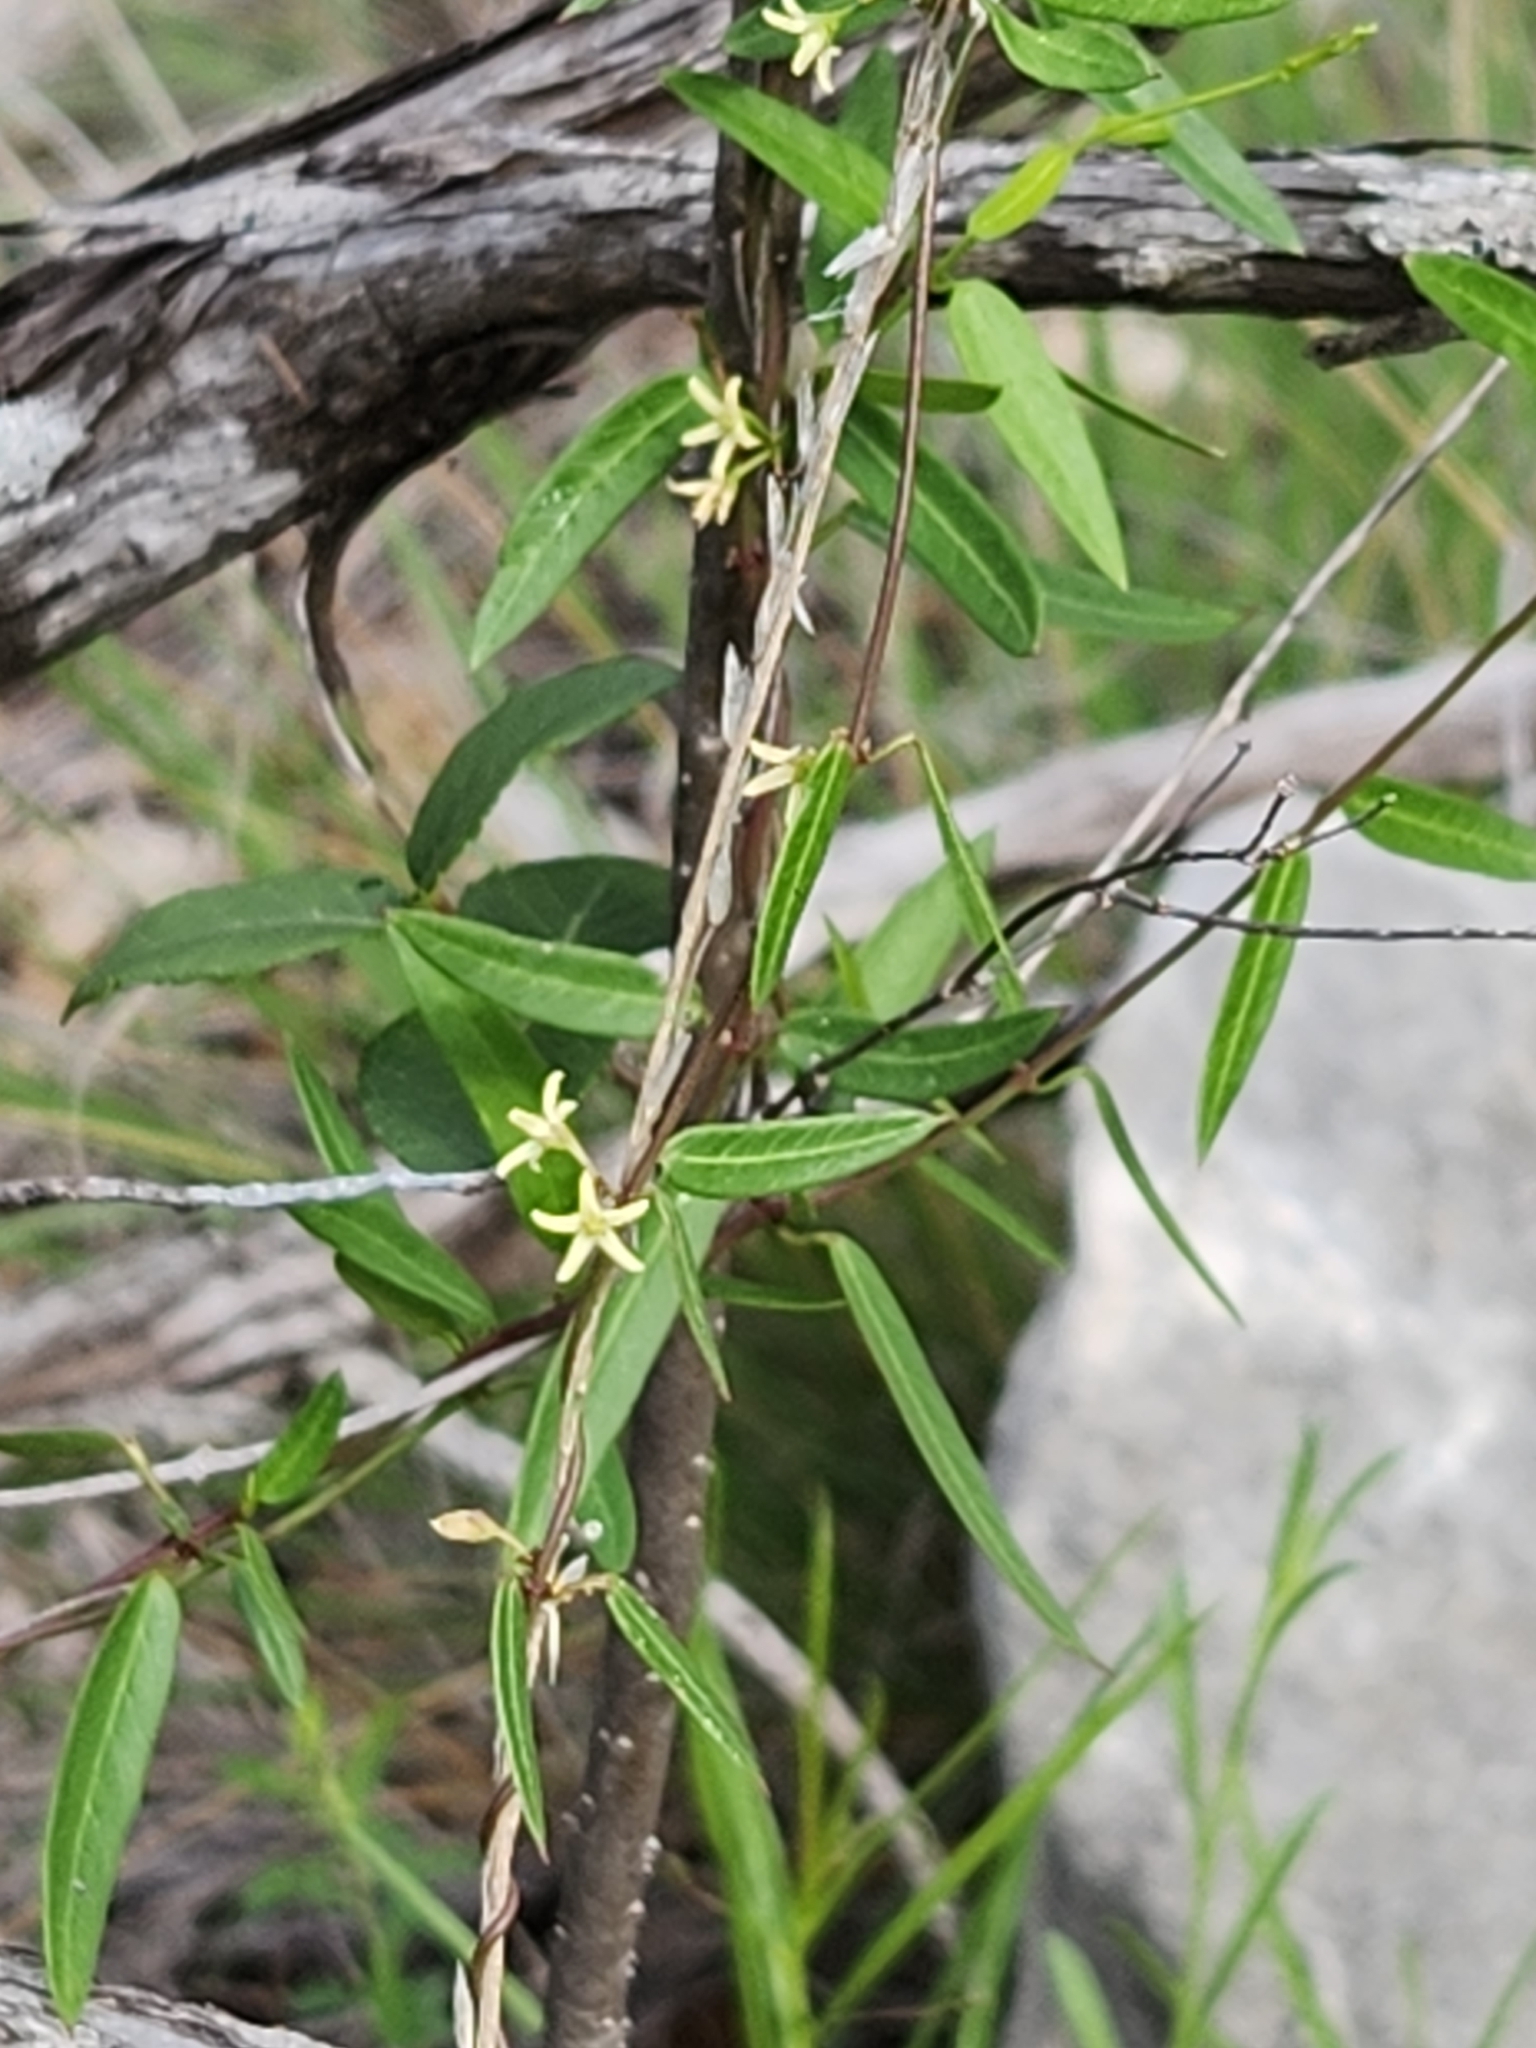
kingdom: Plantae
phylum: Tracheophyta
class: Magnoliopsida
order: Gentianales
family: Apocynaceae
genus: Metastelma
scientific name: Metastelma palmeri
